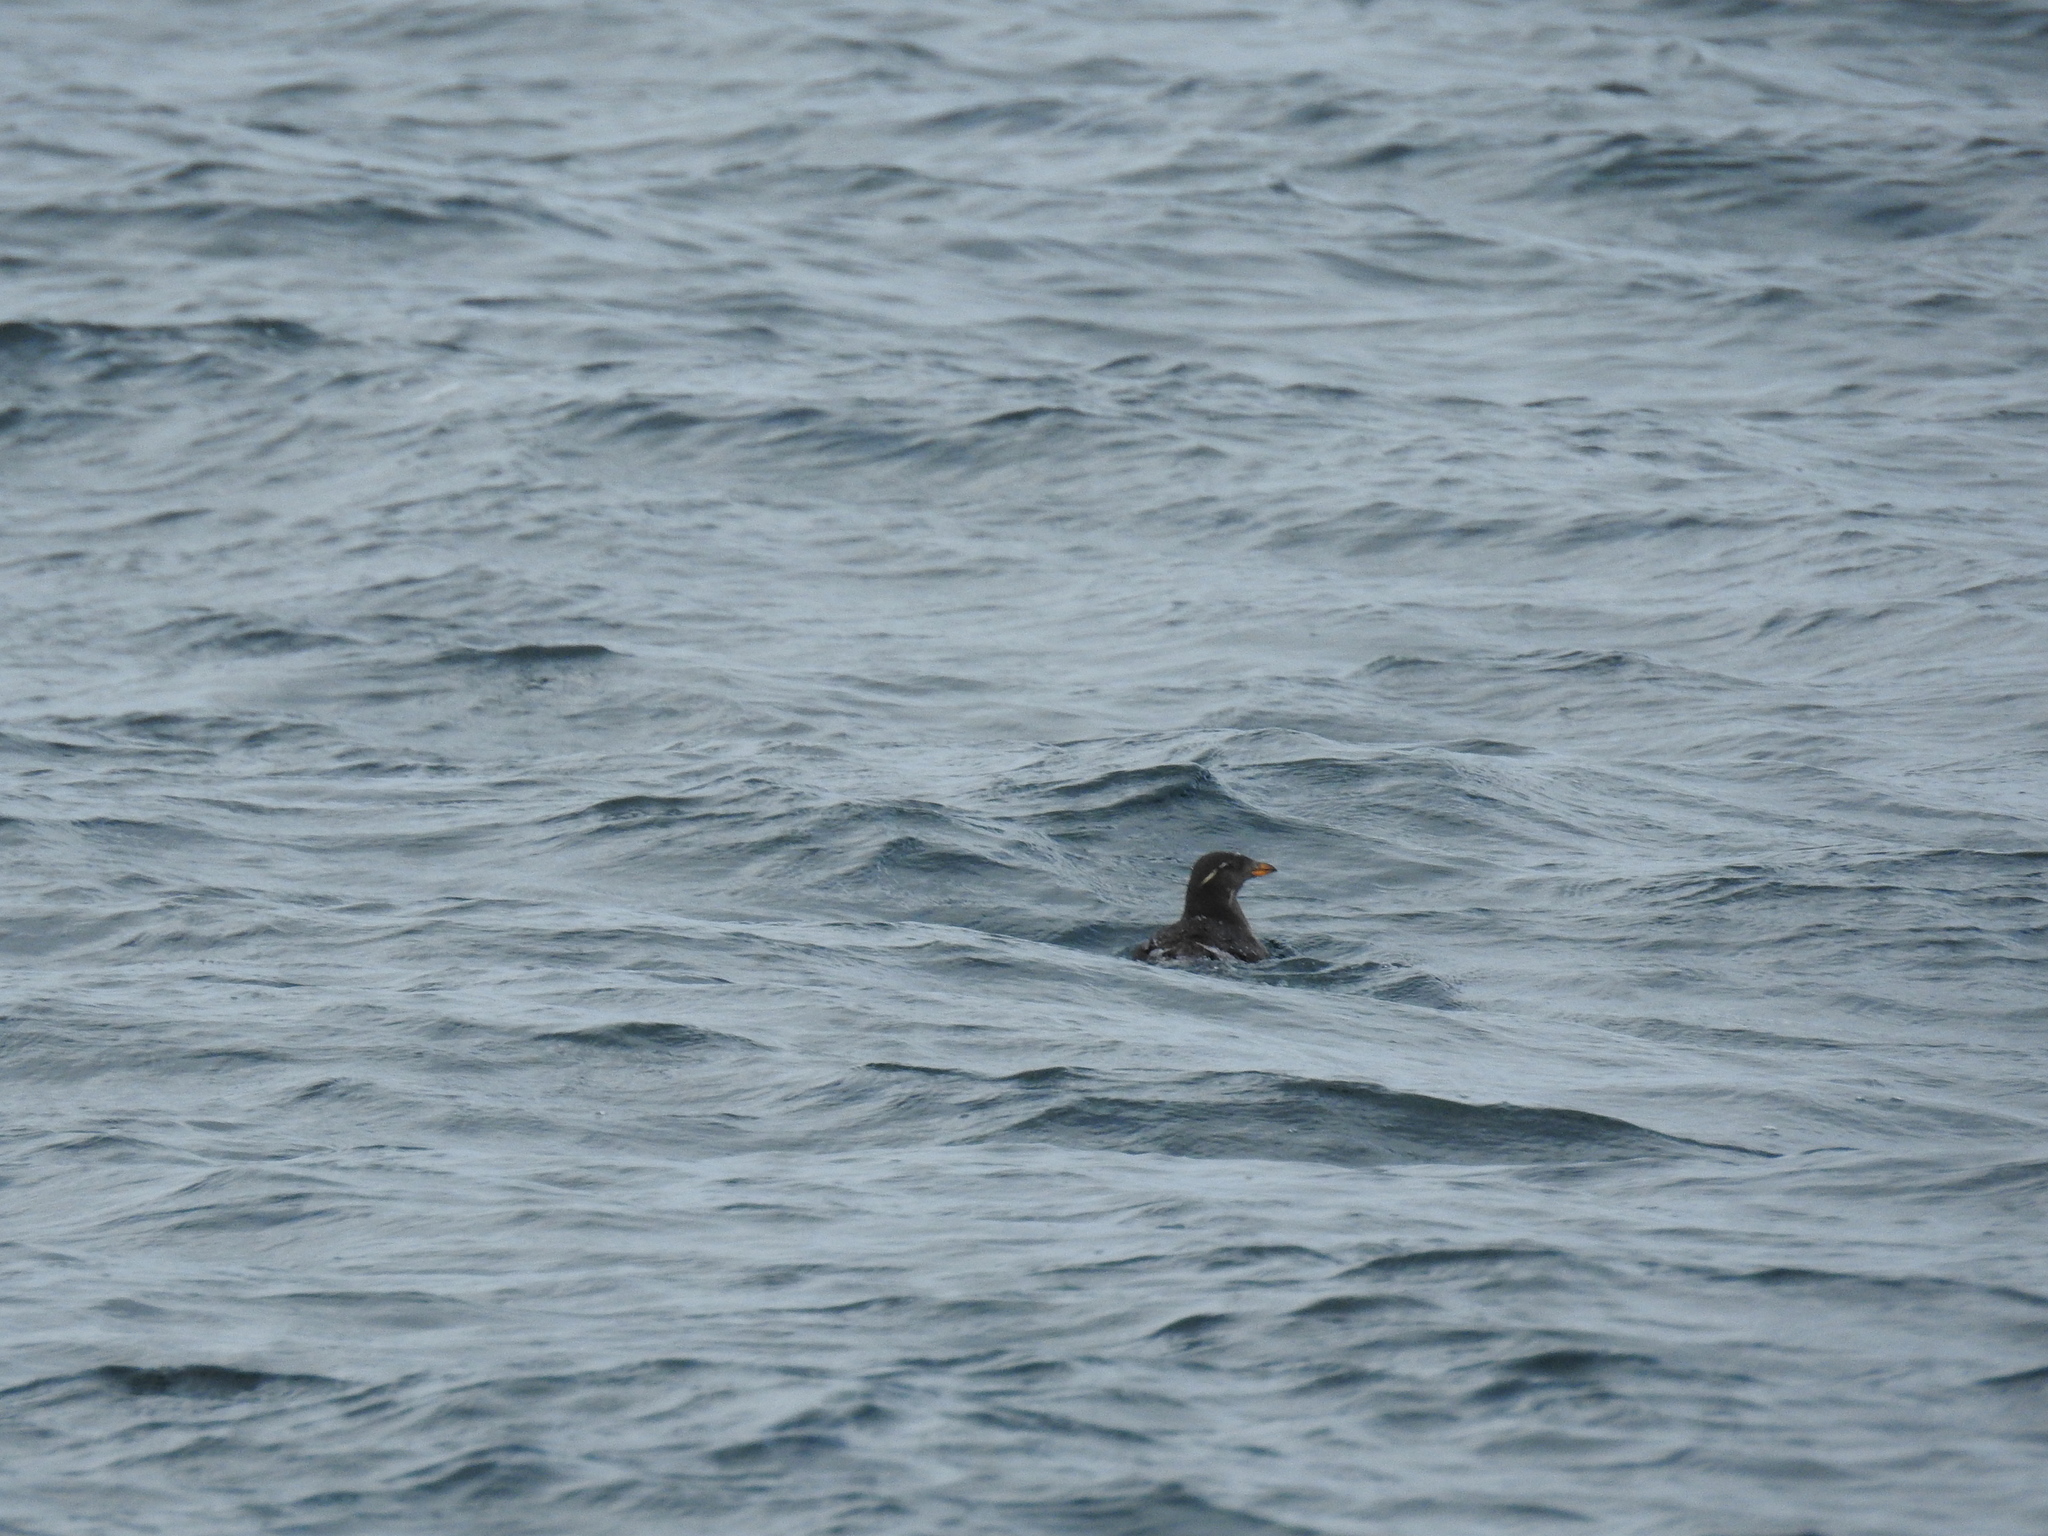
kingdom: Animalia
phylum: Chordata
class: Aves
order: Charadriiformes
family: Alcidae
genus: Cerorhinca
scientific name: Cerorhinca monocerata
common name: Rhinoceros auklet
